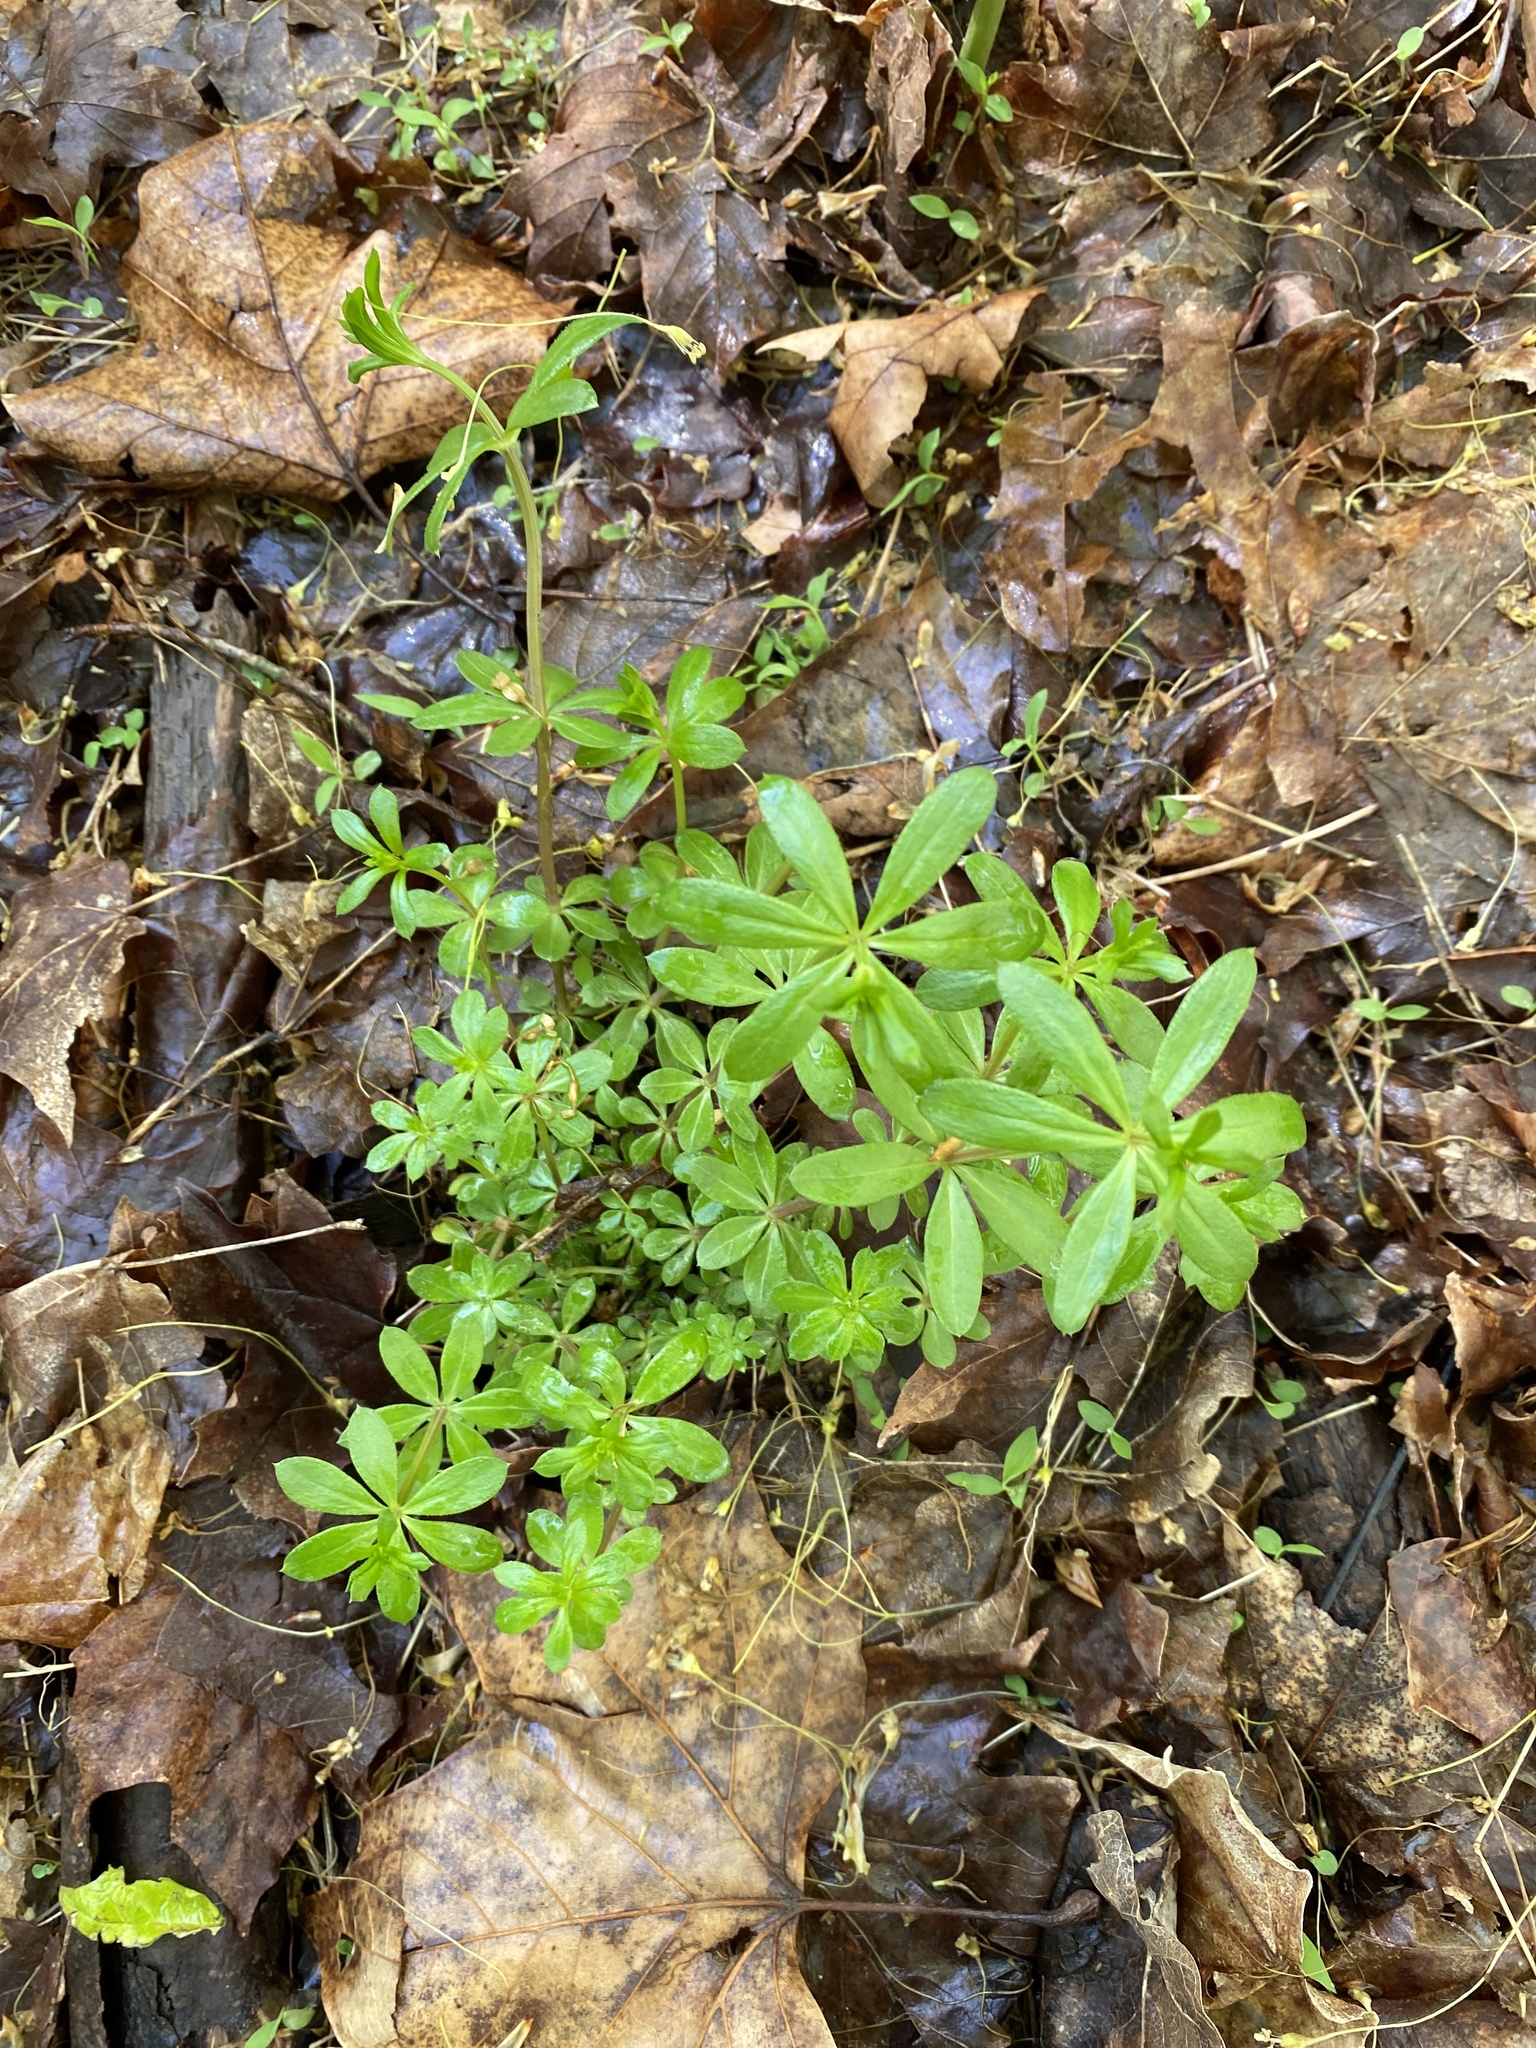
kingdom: Plantae
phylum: Tracheophyta
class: Magnoliopsida
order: Gentianales
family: Rubiaceae
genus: Galium
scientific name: Galium triflorum
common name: Fragrant bedstraw
